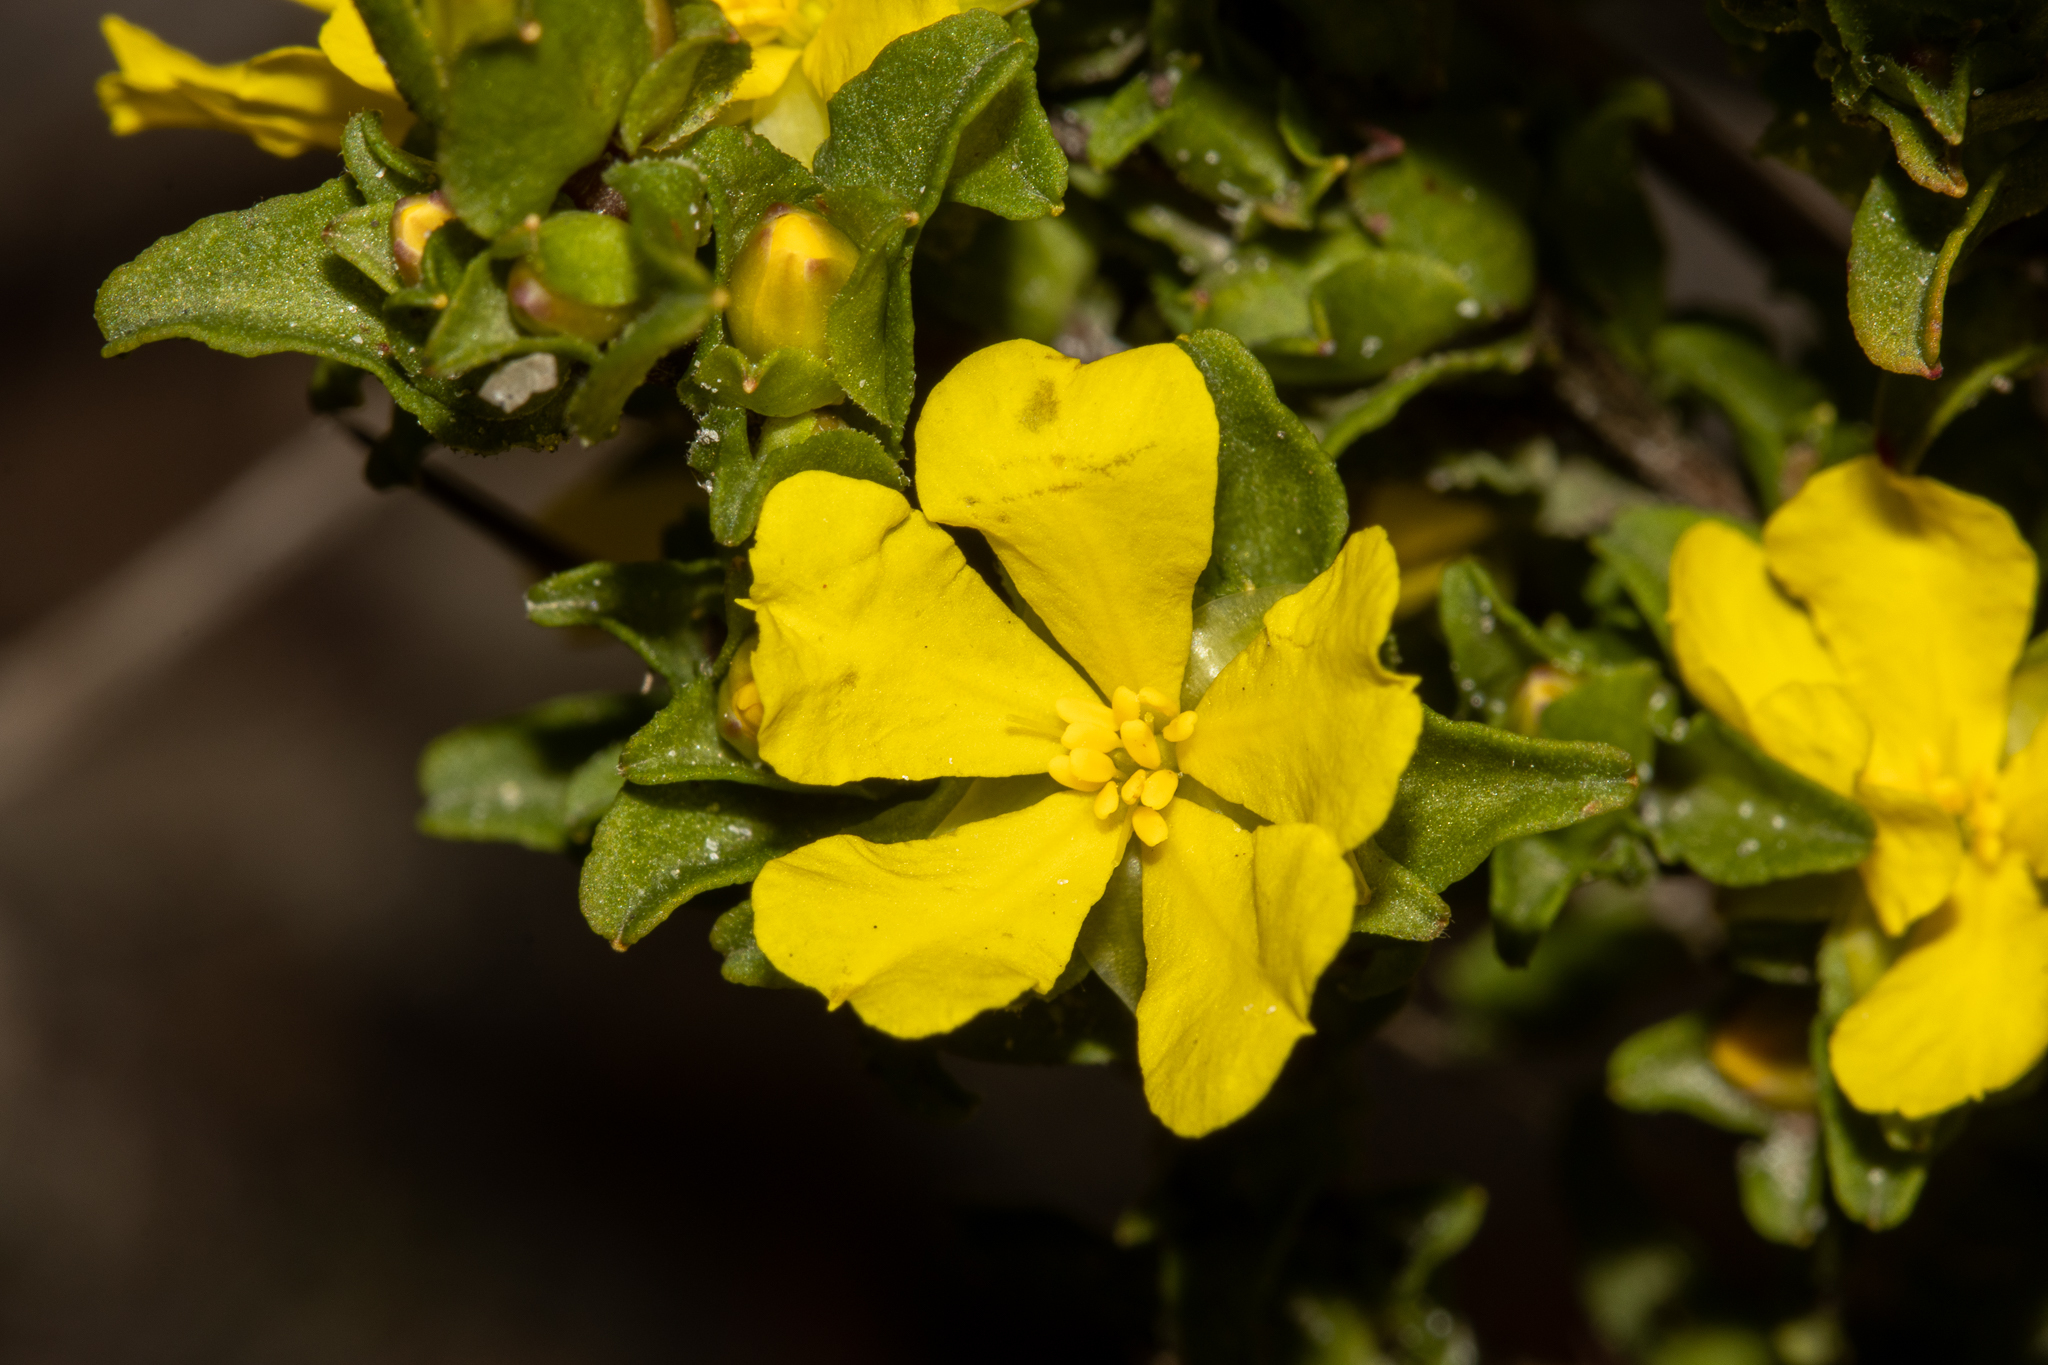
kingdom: Plantae
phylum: Tracheophyta
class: Magnoliopsida
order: Dilleniales
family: Dilleniaceae
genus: Hibbertia
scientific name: Hibbertia glomerata
